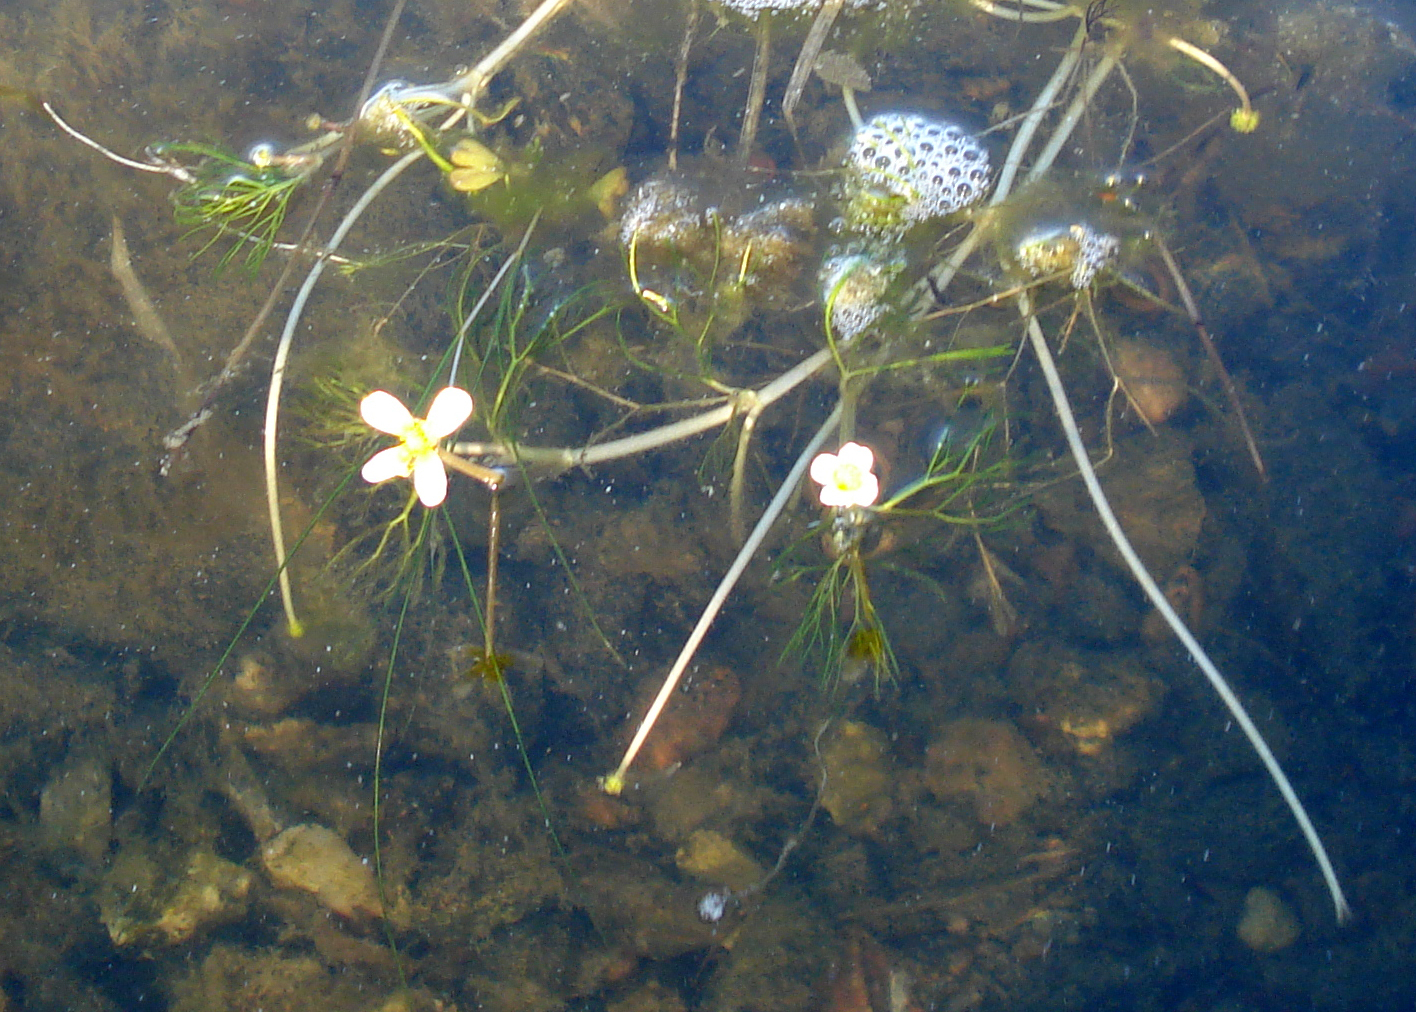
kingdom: Plantae
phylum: Tracheophyta
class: Magnoliopsida
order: Ranunculales
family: Ranunculaceae
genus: Ranunculus
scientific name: Ranunculus aquatilis
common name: Common water-crowfoot
